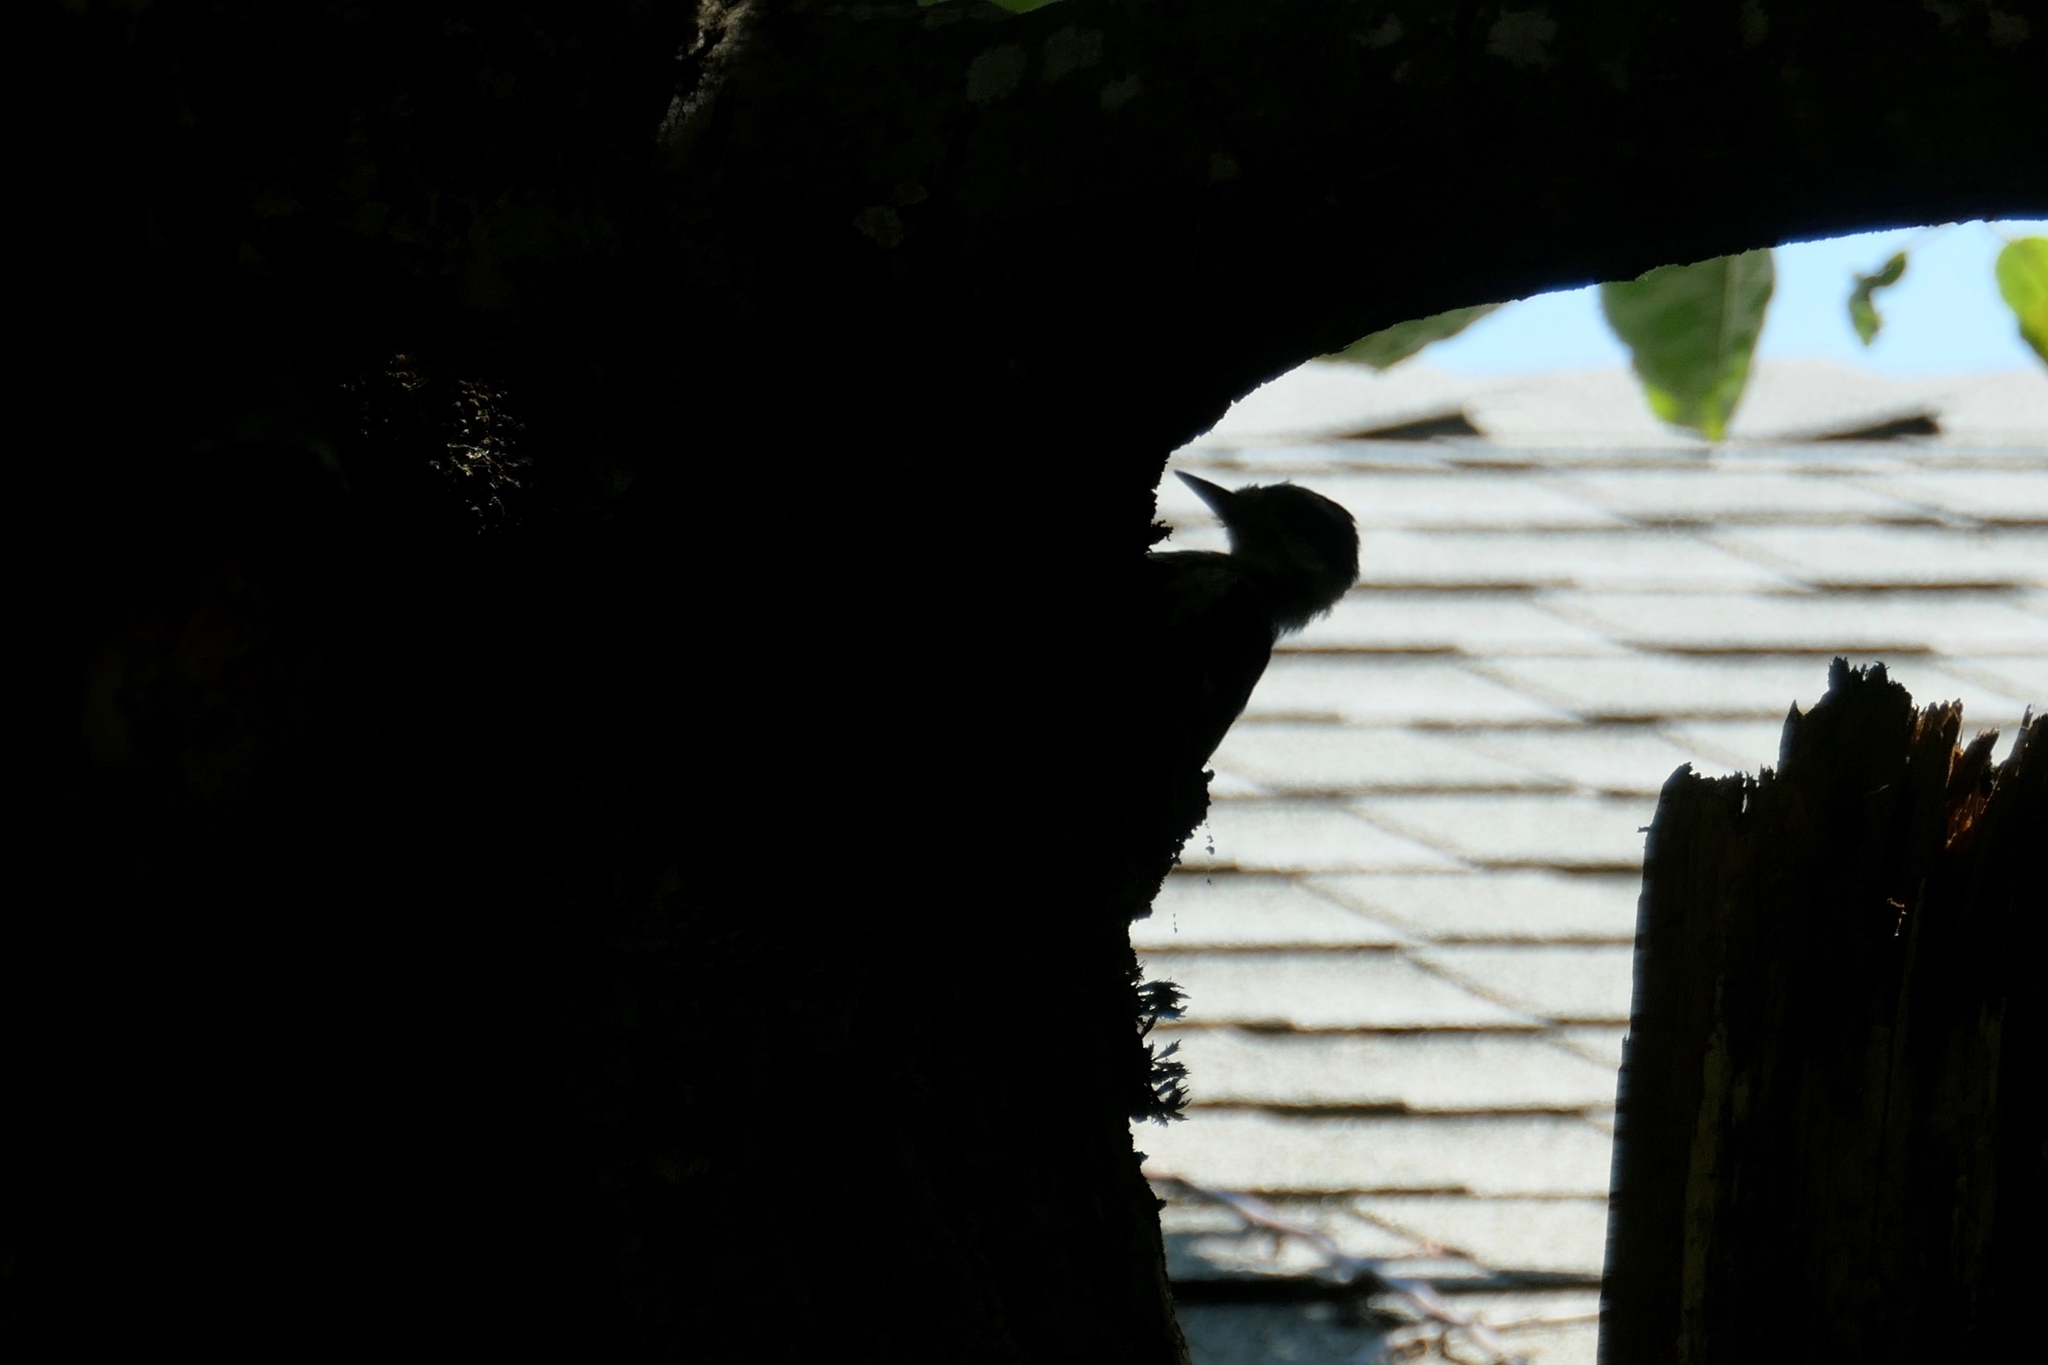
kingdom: Animalia
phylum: Chordata
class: Aves
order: Piciformes
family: Picidae
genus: Leuconotopicus
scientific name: Leuconotopicus villosus
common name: Hairy woodpecker
